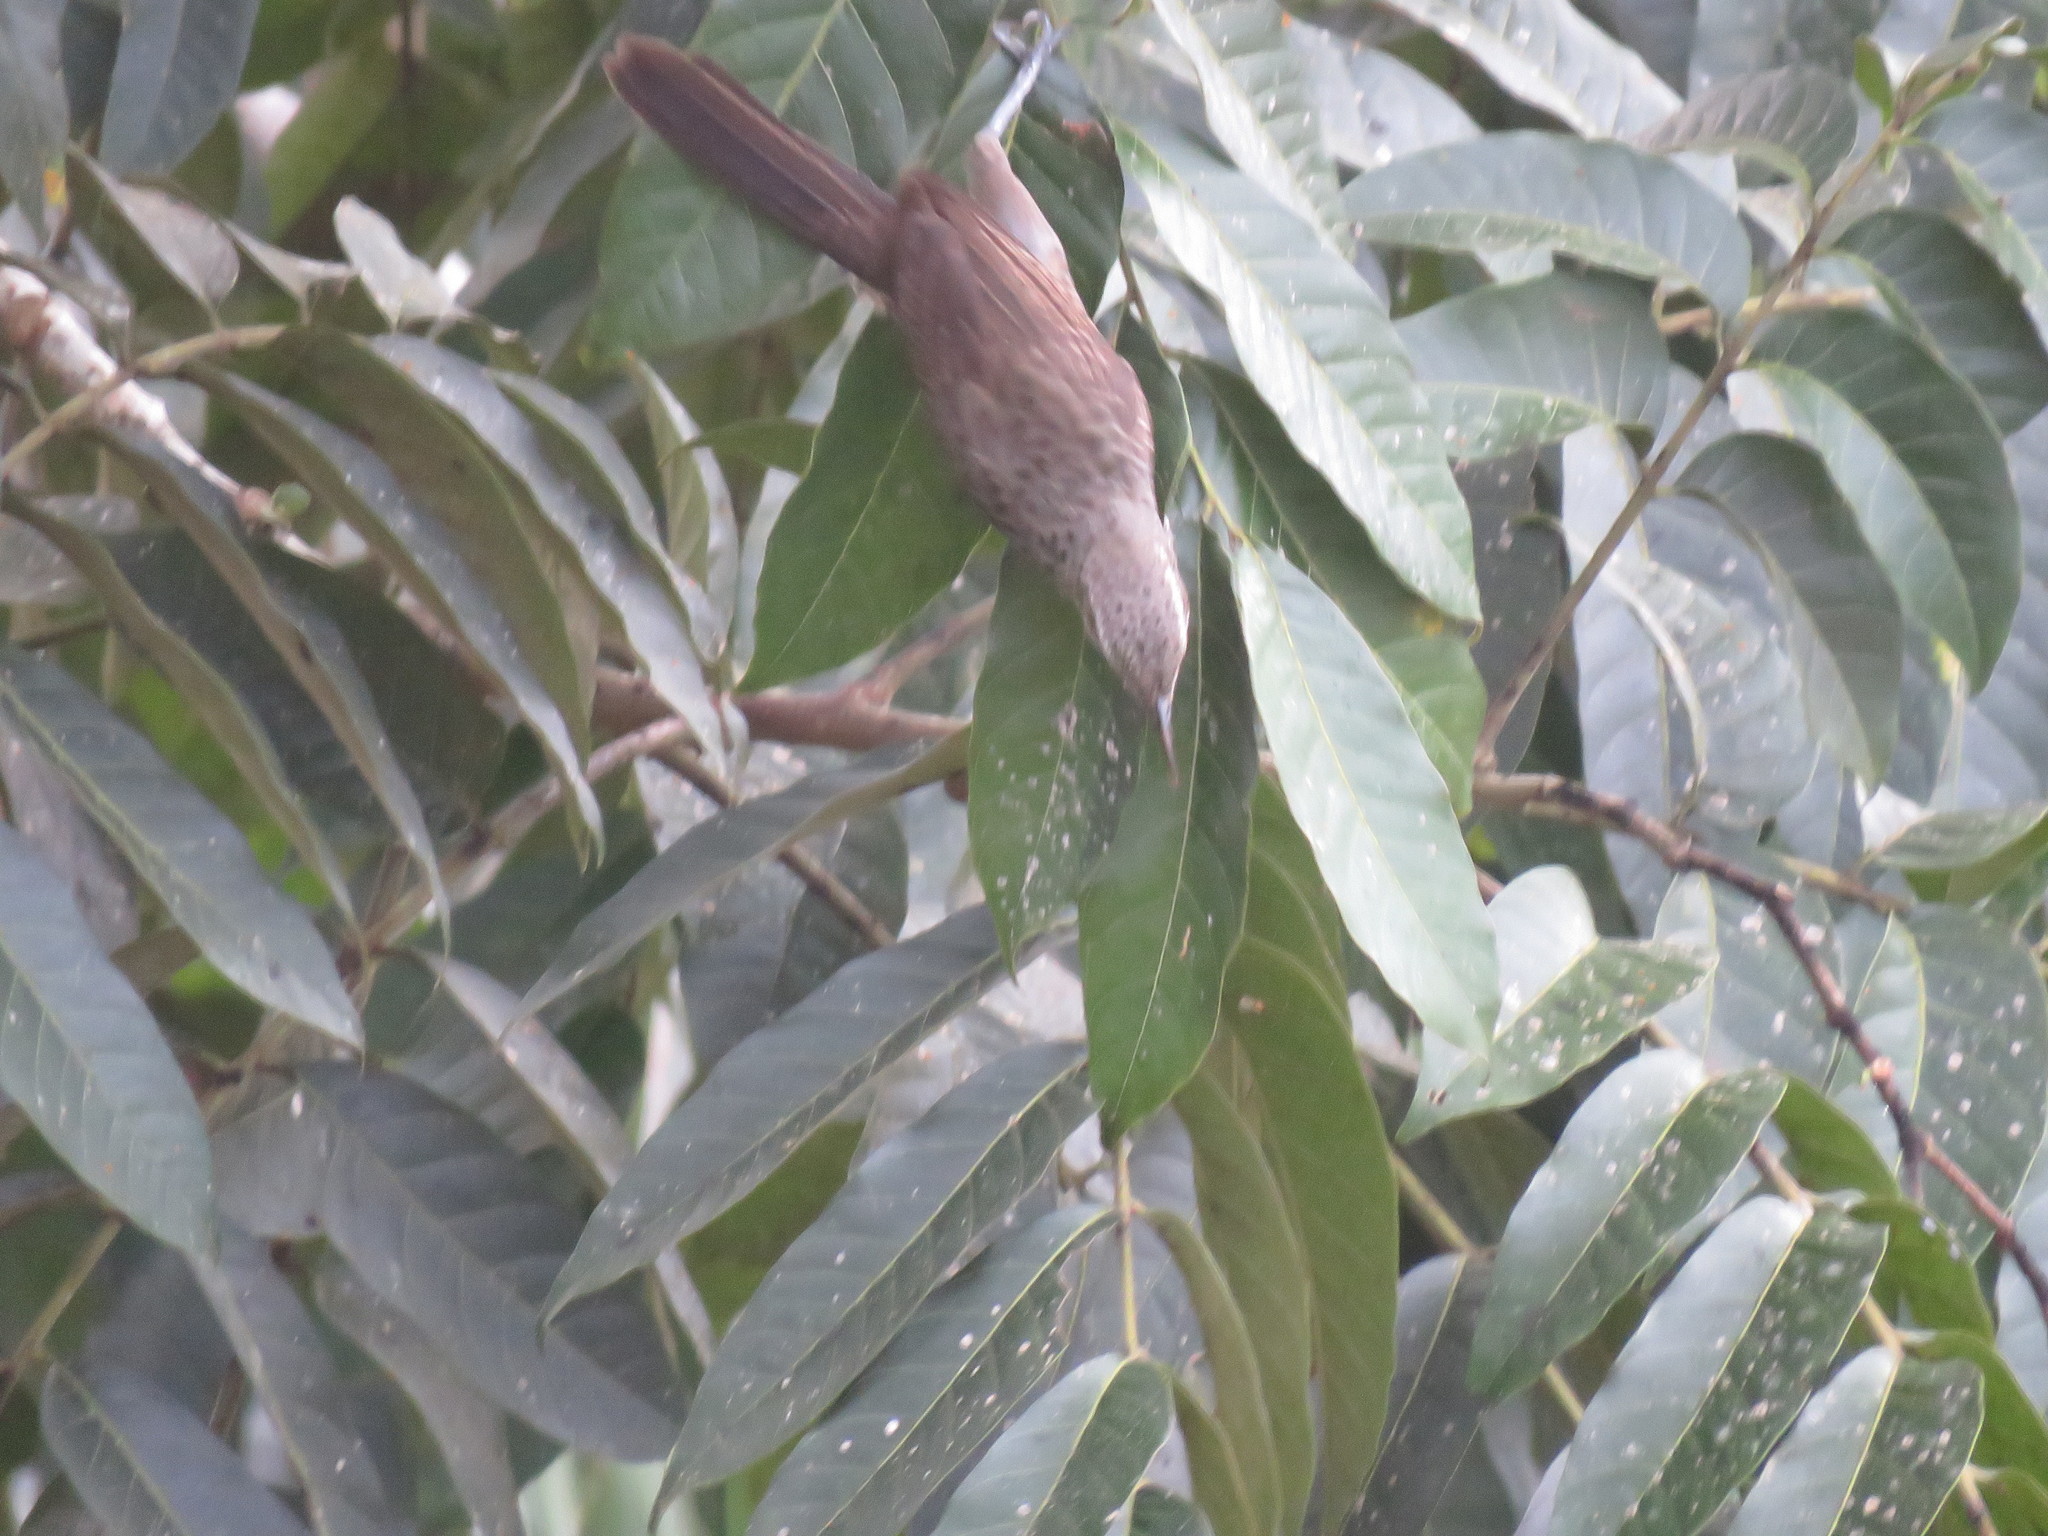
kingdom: Animalia
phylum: Chordata
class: Aves
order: Passeriformes
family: Troglodytidae
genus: Campylorhynchus
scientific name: Campylorhynchus turdinus
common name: Thrush-like wren
